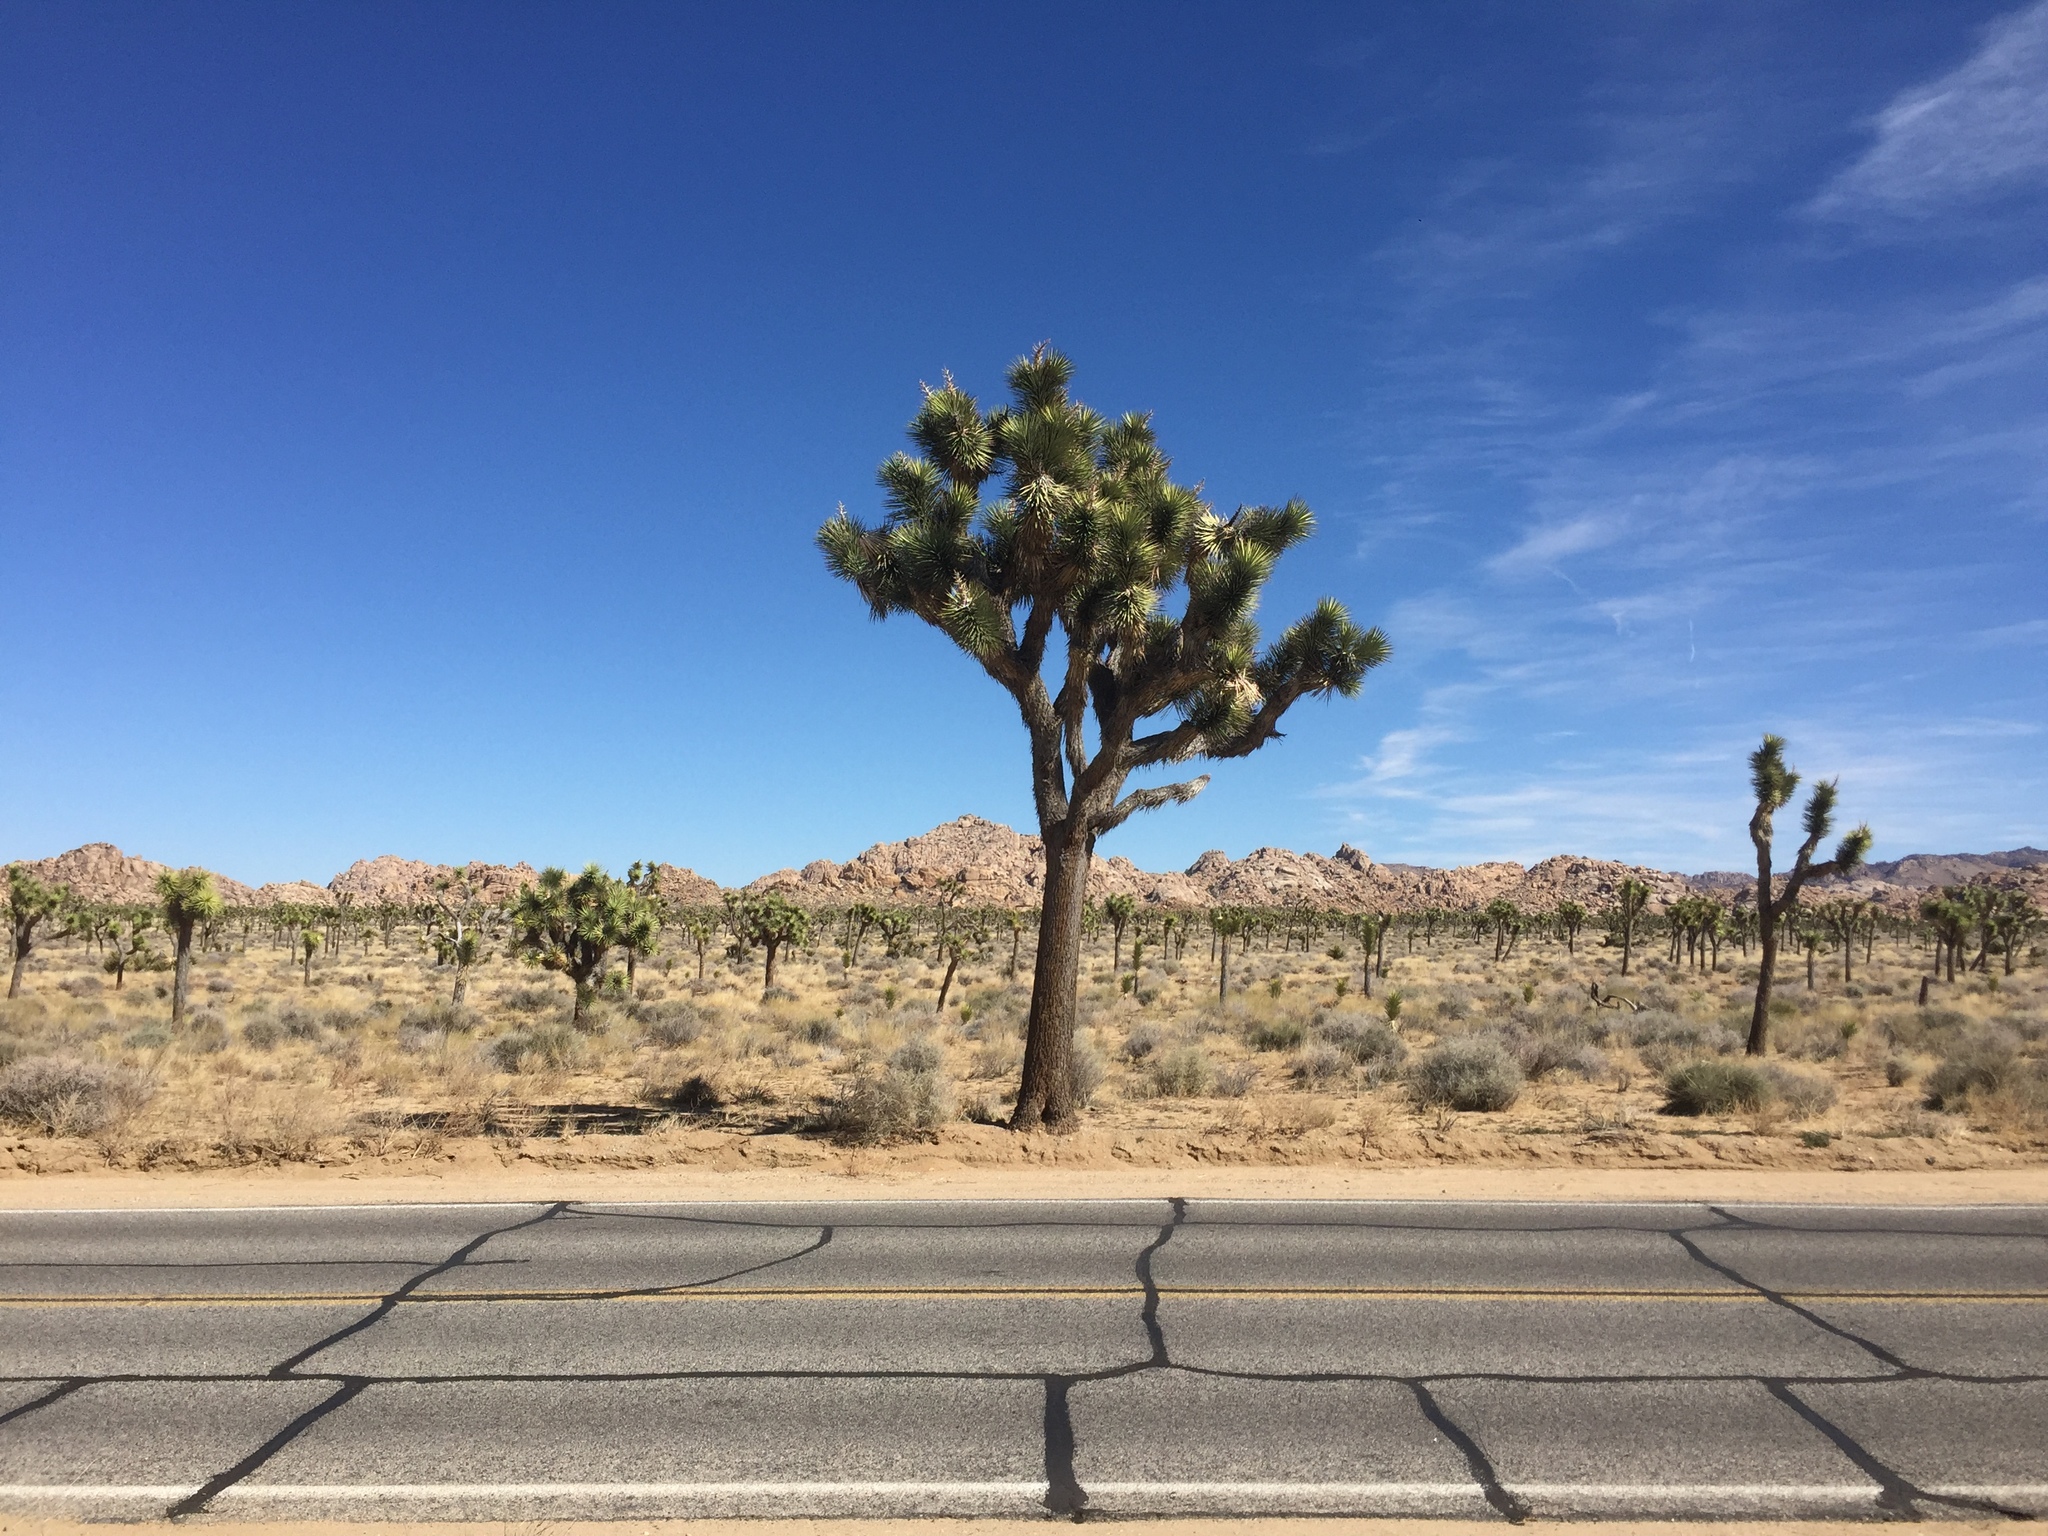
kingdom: Plantae
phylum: Tracheophyta
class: Liliopsida
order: Asparagales
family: Asparagaceae
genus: Yucca
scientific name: Yucca brevifolia
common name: Joshua tree
